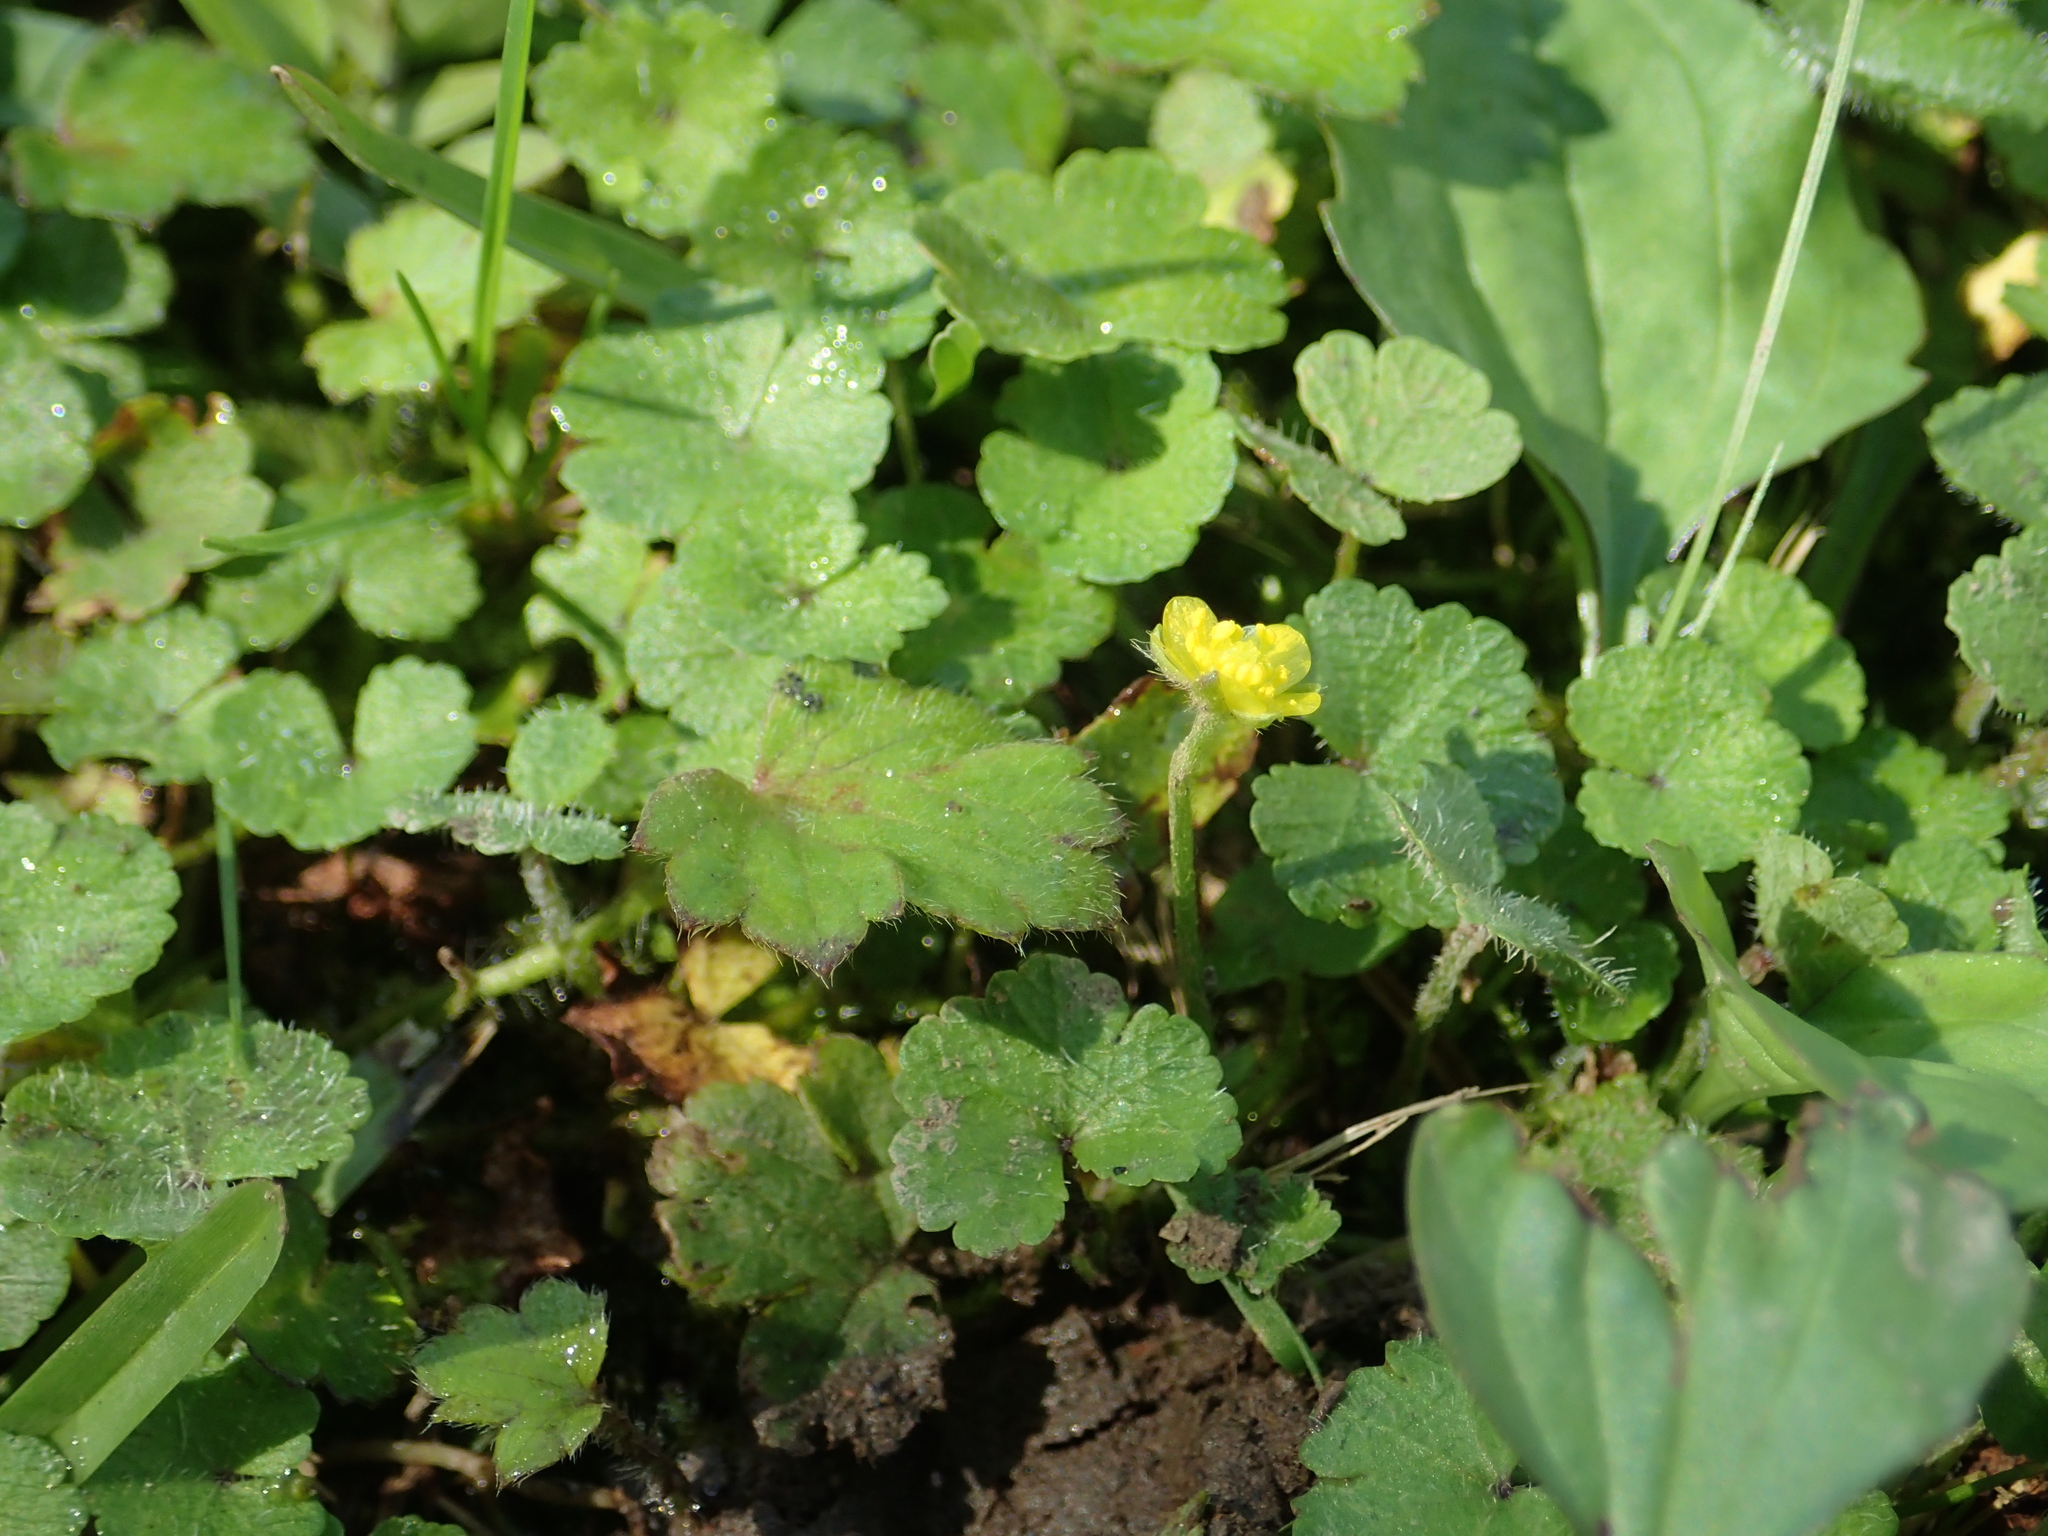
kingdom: Plantae
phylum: Tracheophyta
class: Magnoliopsida
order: Ranunculales
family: Ranunculaceae
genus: Ranunculus
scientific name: Ranunculus taisanensis
